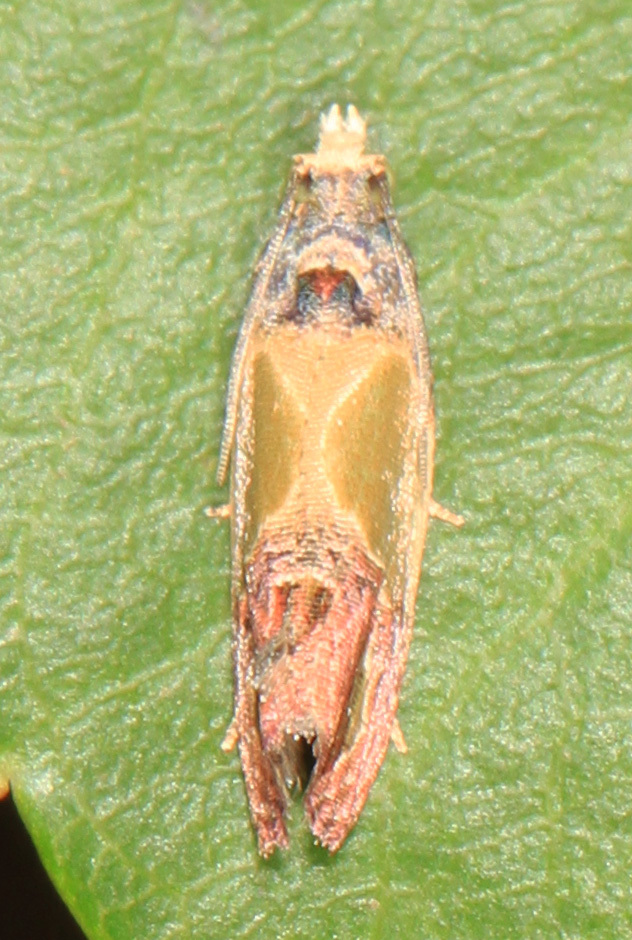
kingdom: Animalia
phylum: Arthropoda
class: Insecta
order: Lepidoptera
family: Tortricidae
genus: Eumarozia
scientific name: Eumarozia malachitana
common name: Sculptured moth
